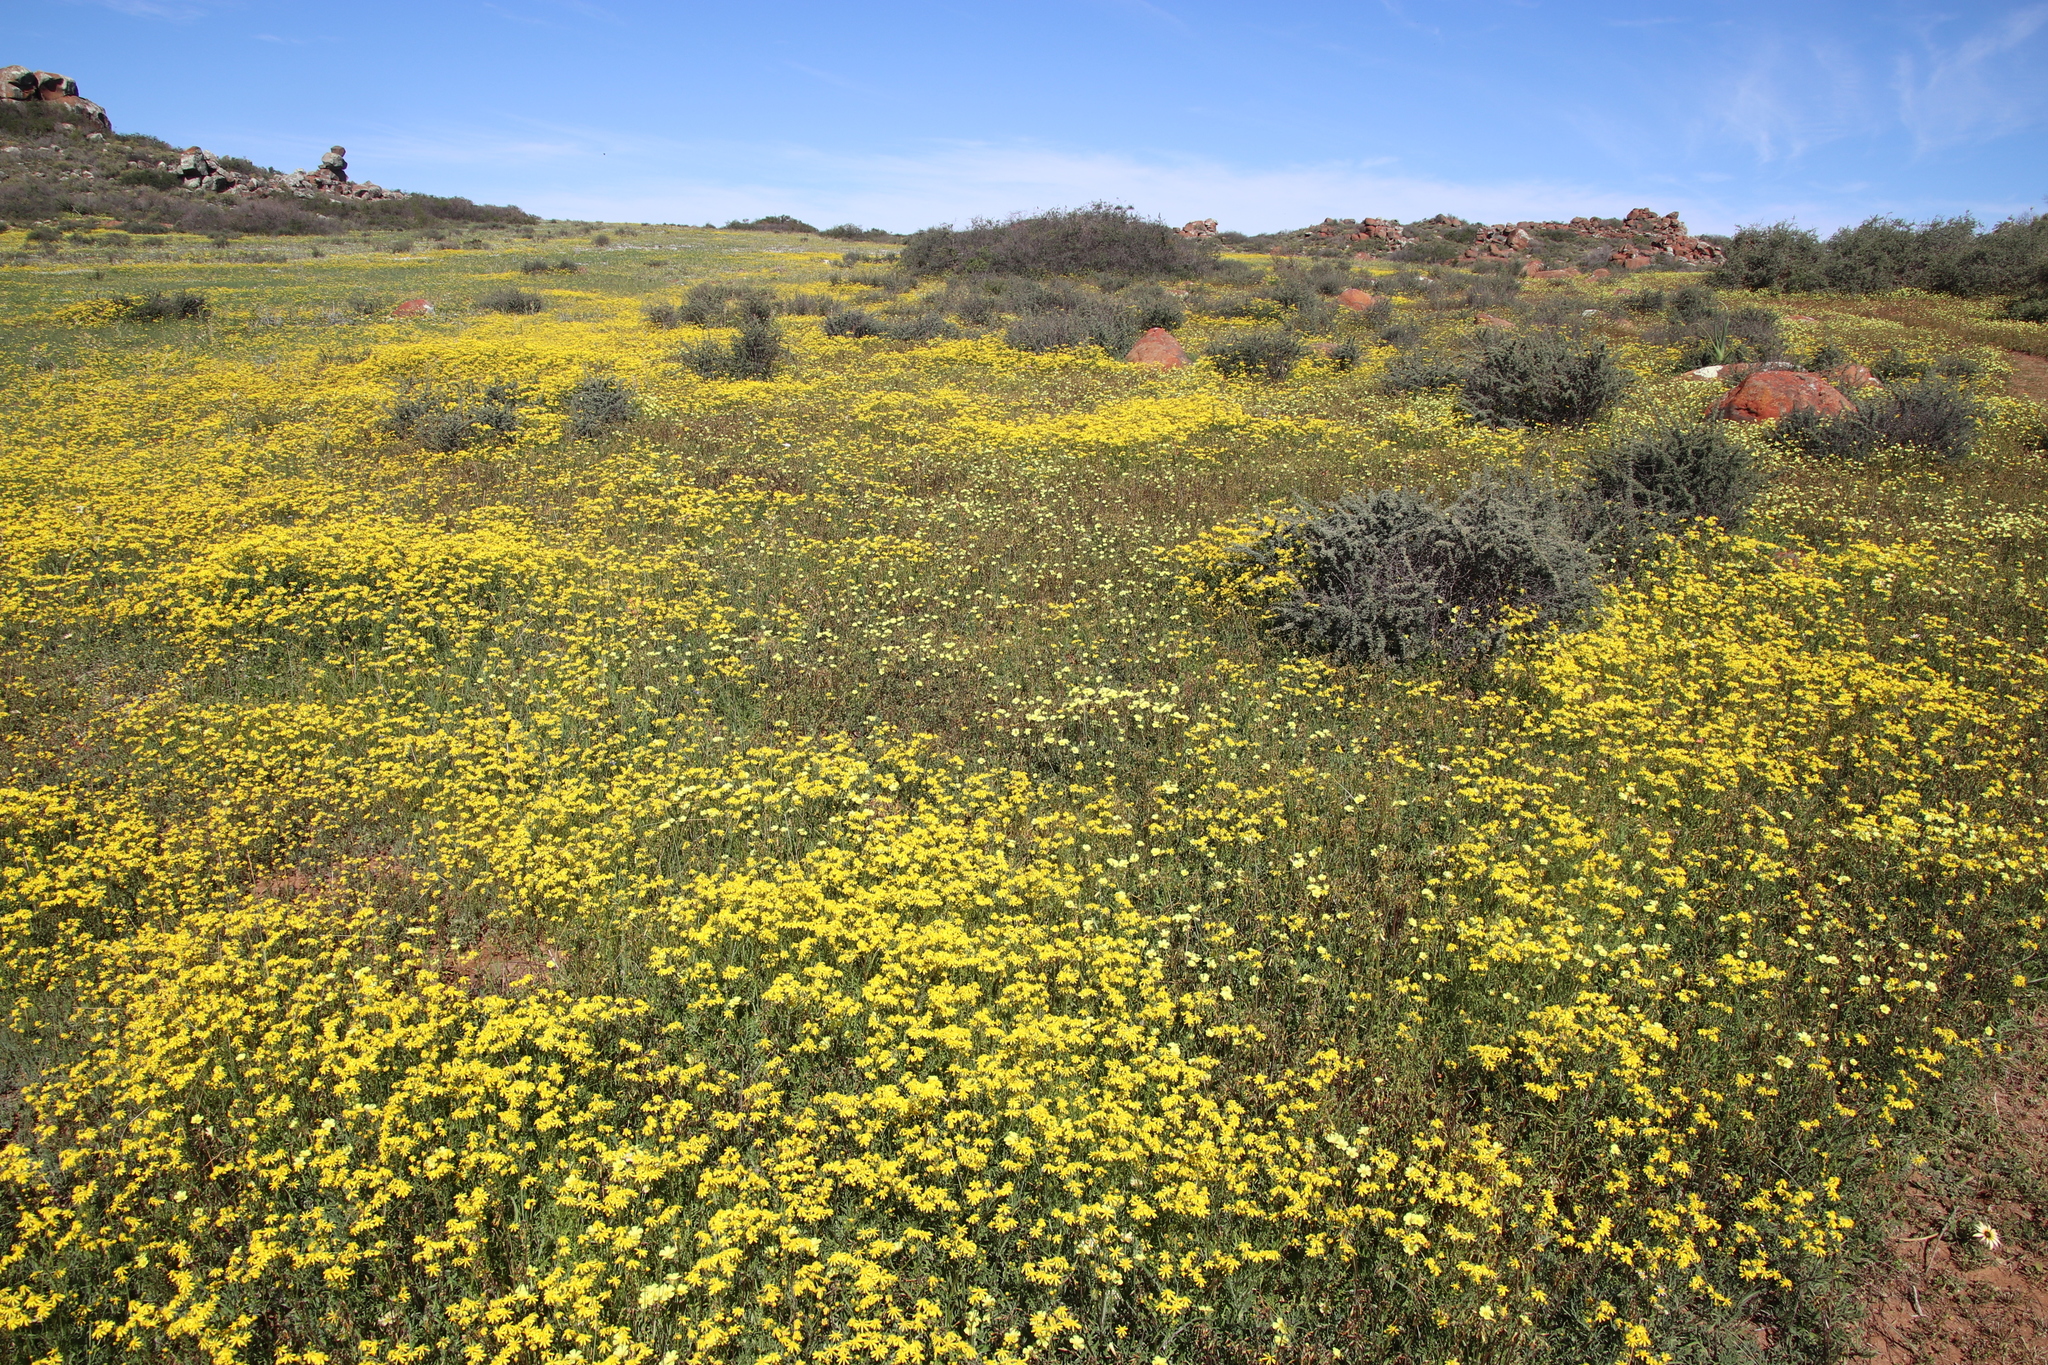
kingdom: Plantae
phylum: Tracheophyta
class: Magnoliopsida
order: Asterales
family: Asteraceae
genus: Senecio
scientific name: Senecio abruptus
